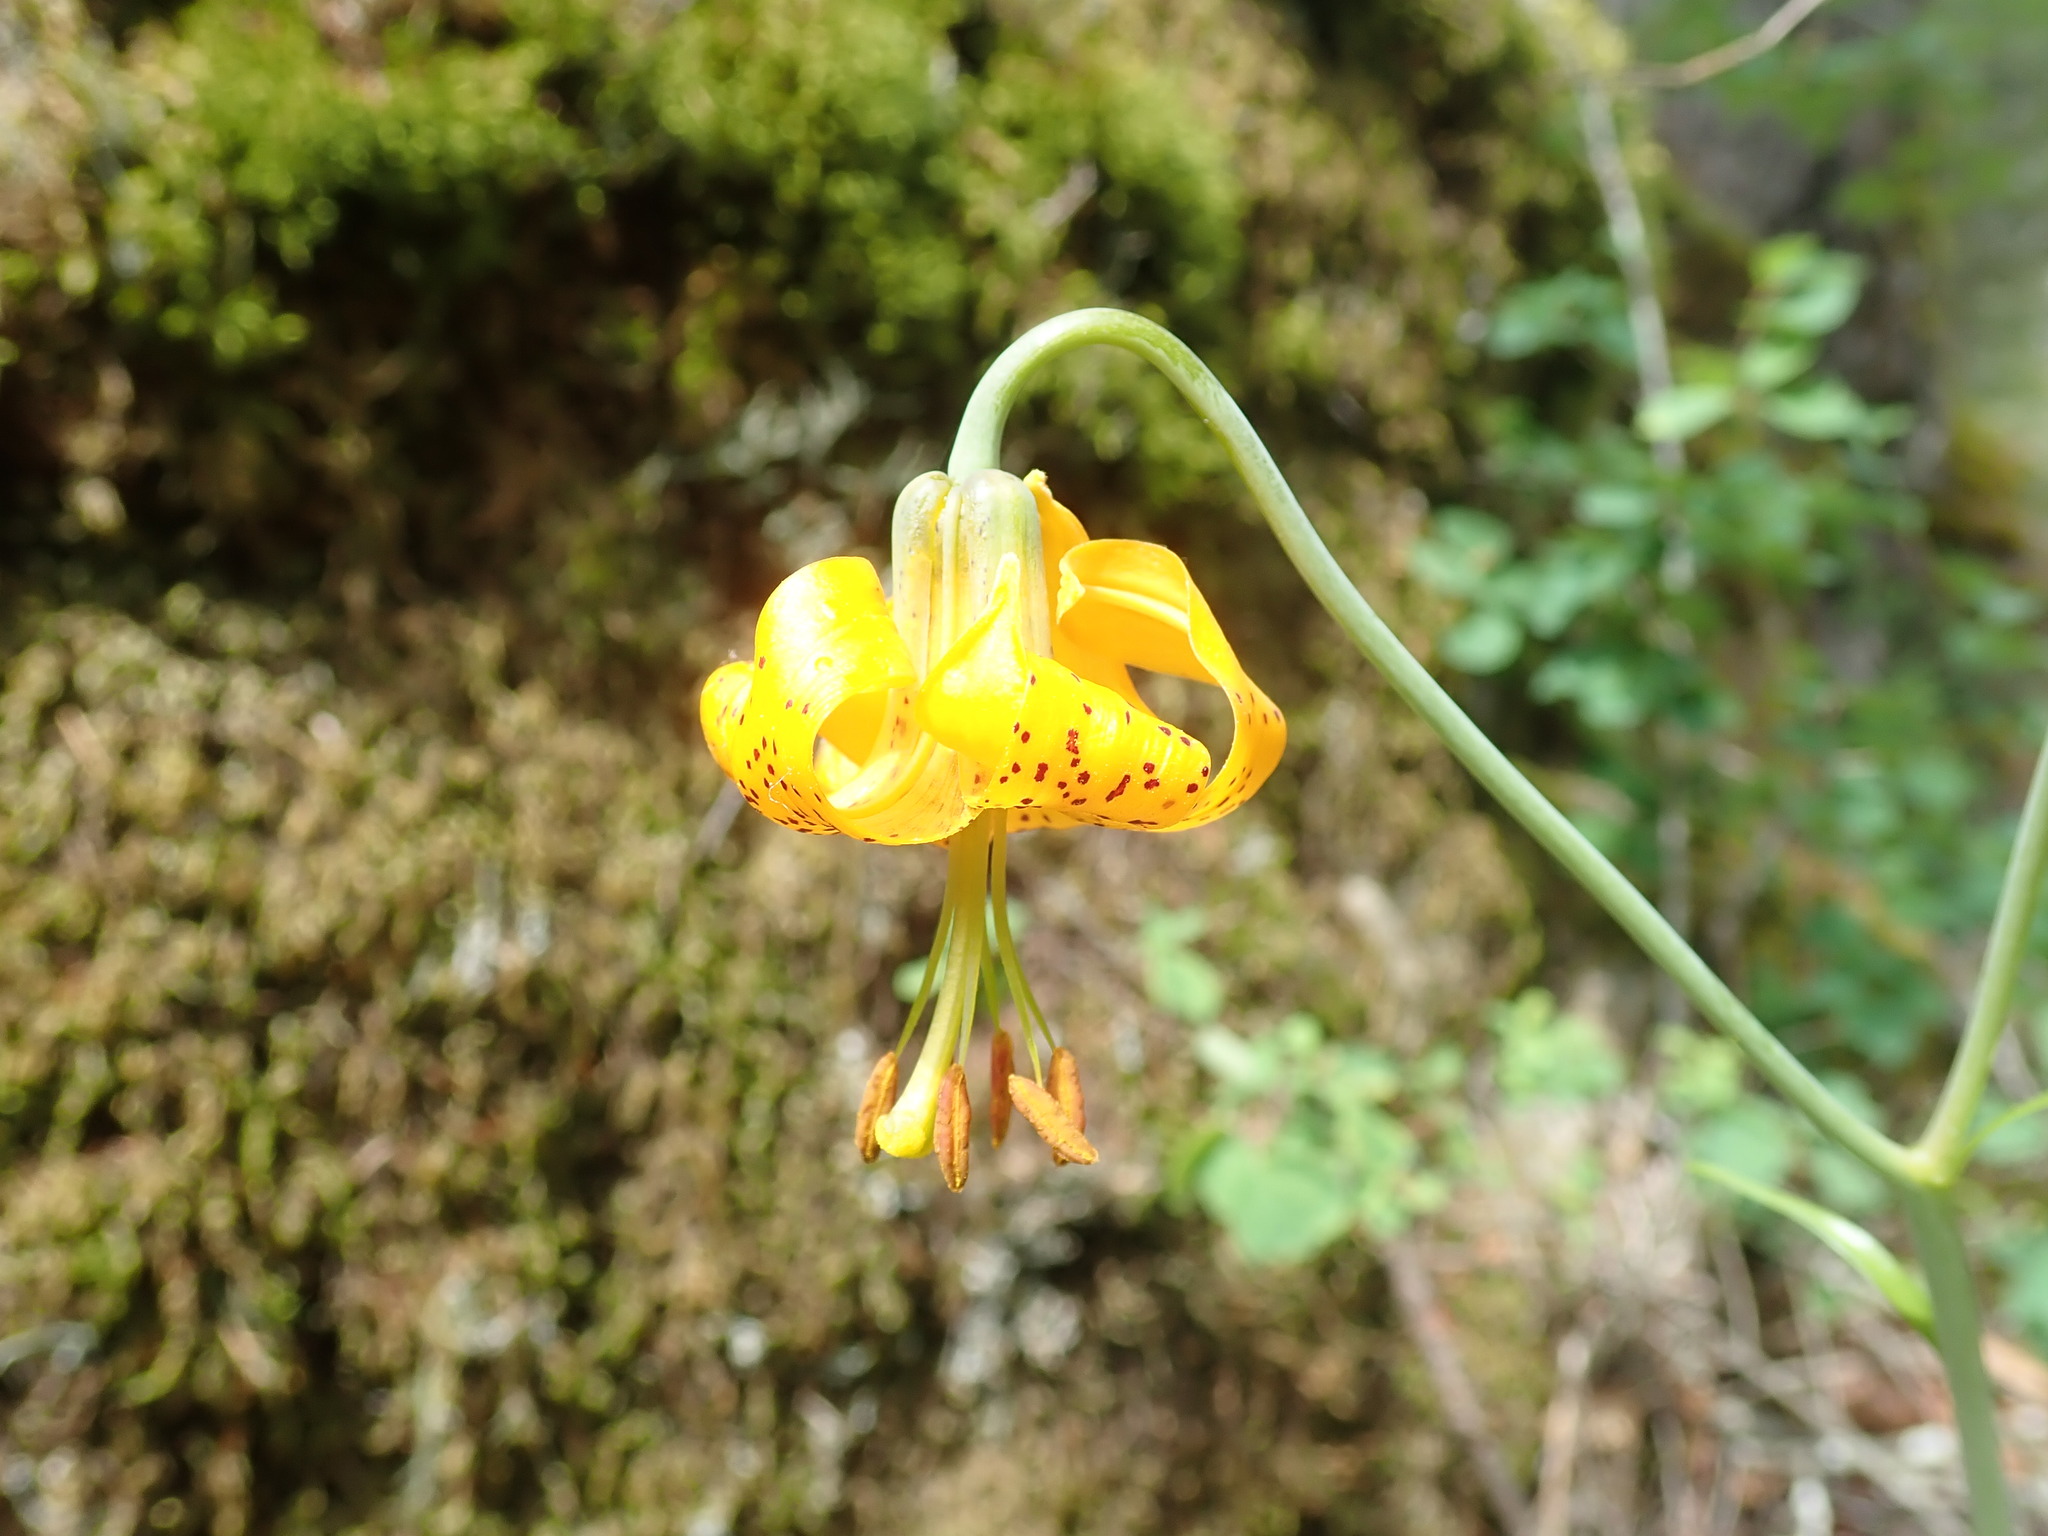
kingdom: Plantae
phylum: Tracheophyta
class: Liliopsida
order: Liliales
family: Liliaceae
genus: Lilium
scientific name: Lilium columbianum
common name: Columbia lily
